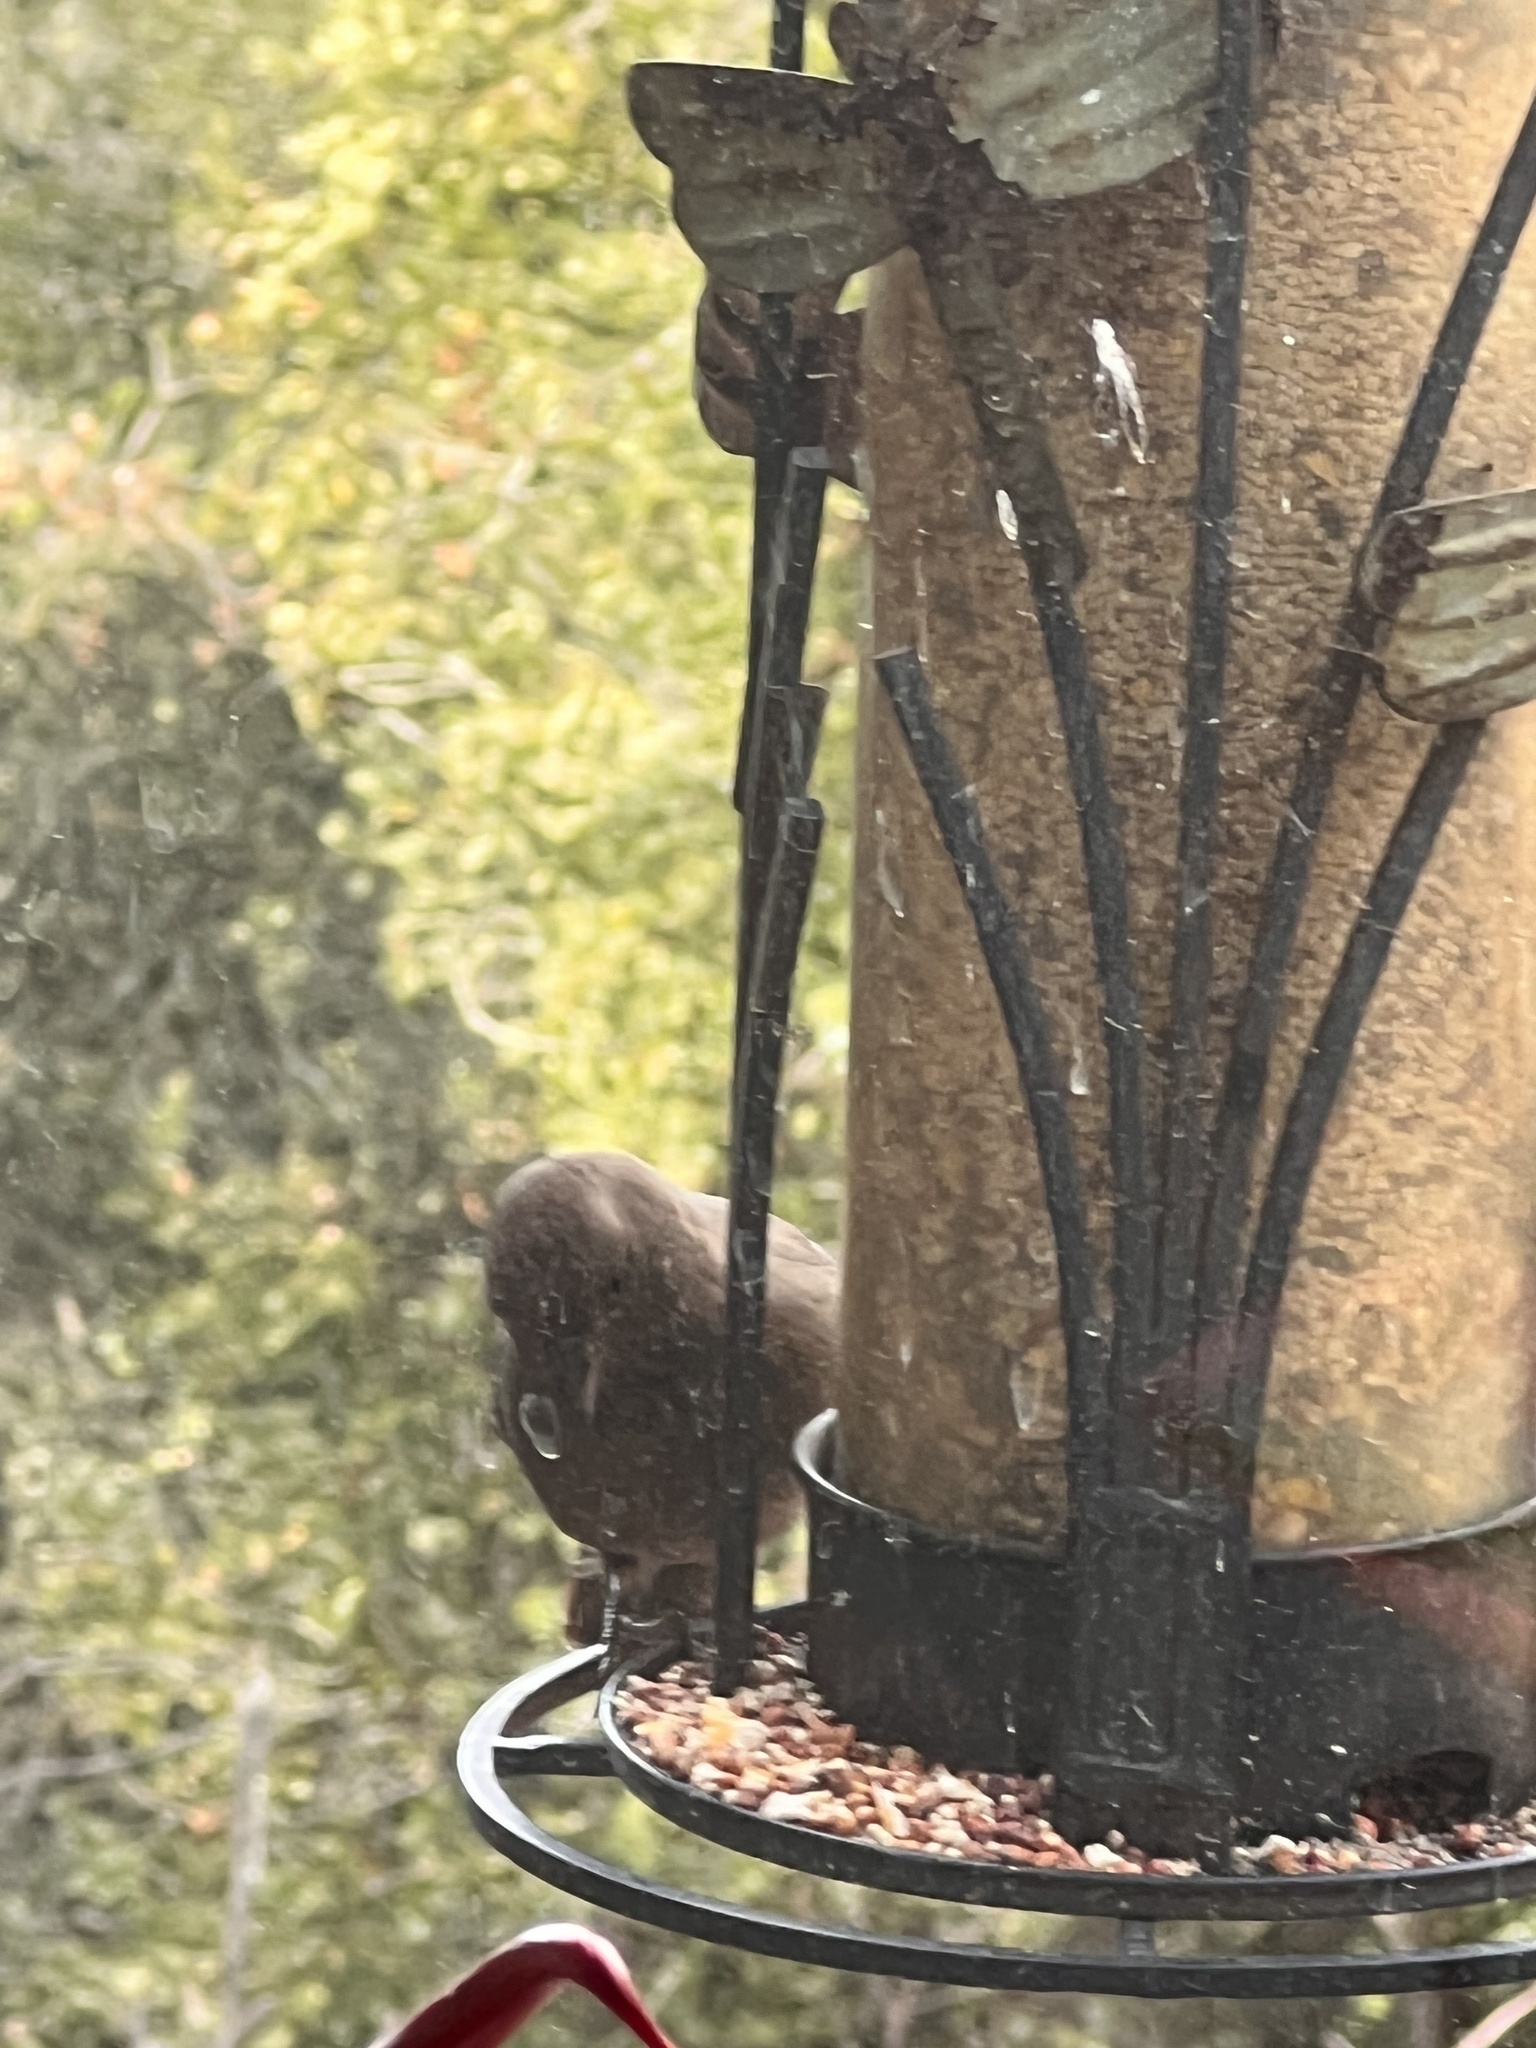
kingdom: Animalia
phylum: Chordata
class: Aves
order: Passeriformes
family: Passerellidae
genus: Melozone
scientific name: Melozone crissalis
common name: California towhee
